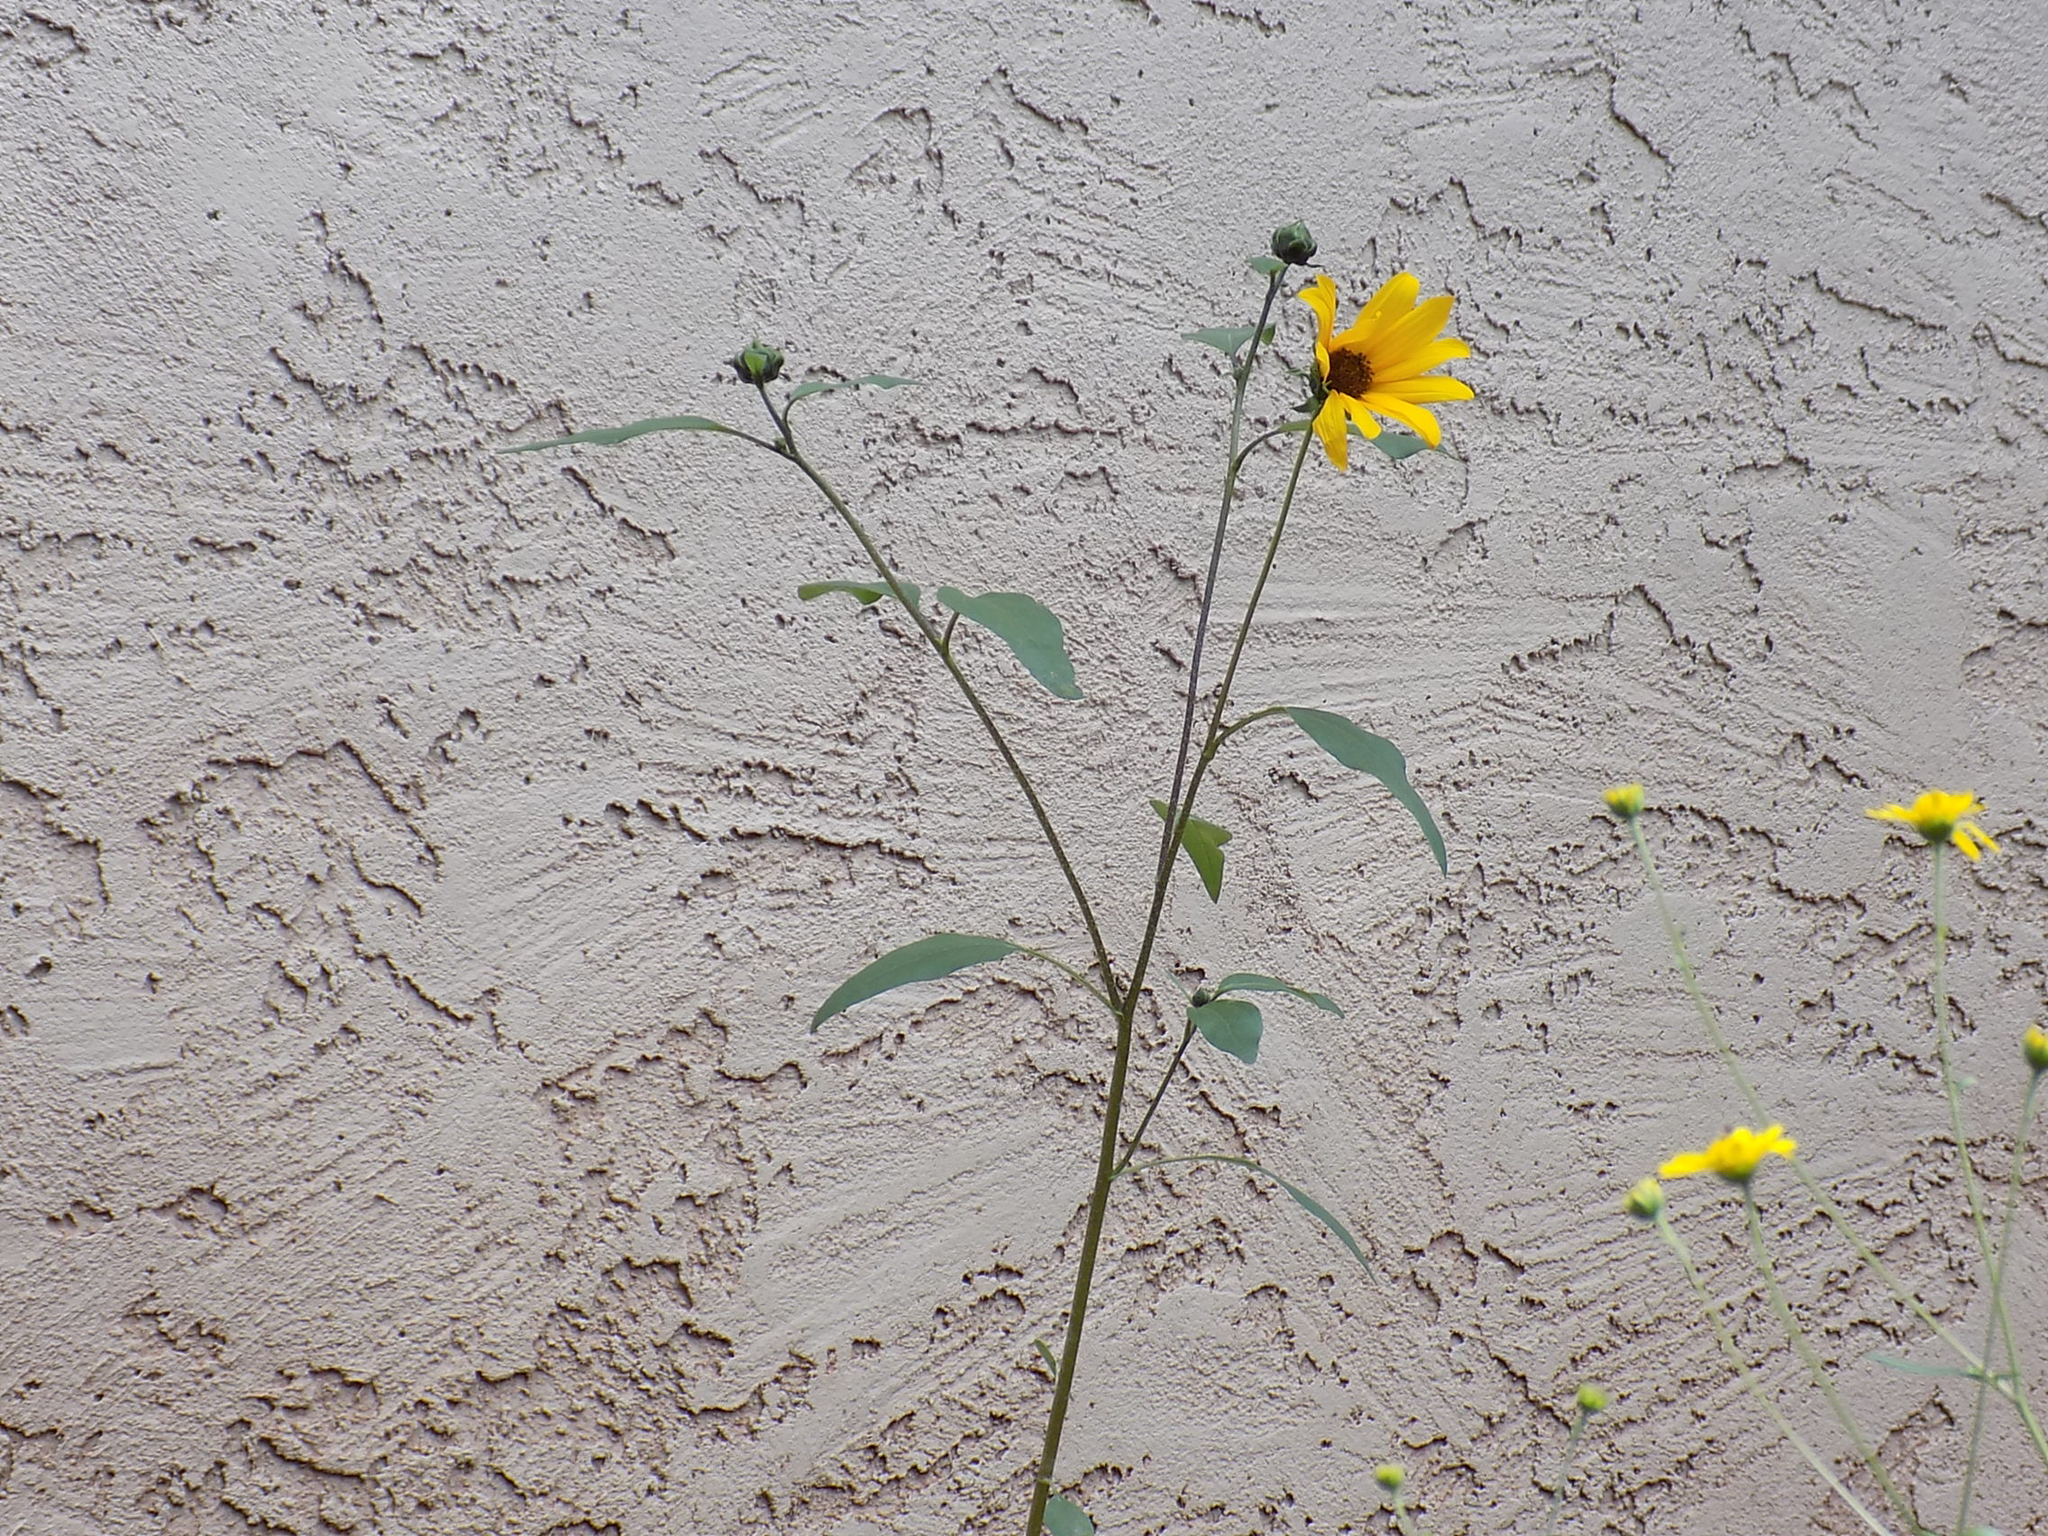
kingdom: Plantae
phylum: Tracheophyta
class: Magnoliopsida
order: Asterales
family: Asteraceae
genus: Helianthus
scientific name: Helianthus petiolaris
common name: Lesser sunflower
